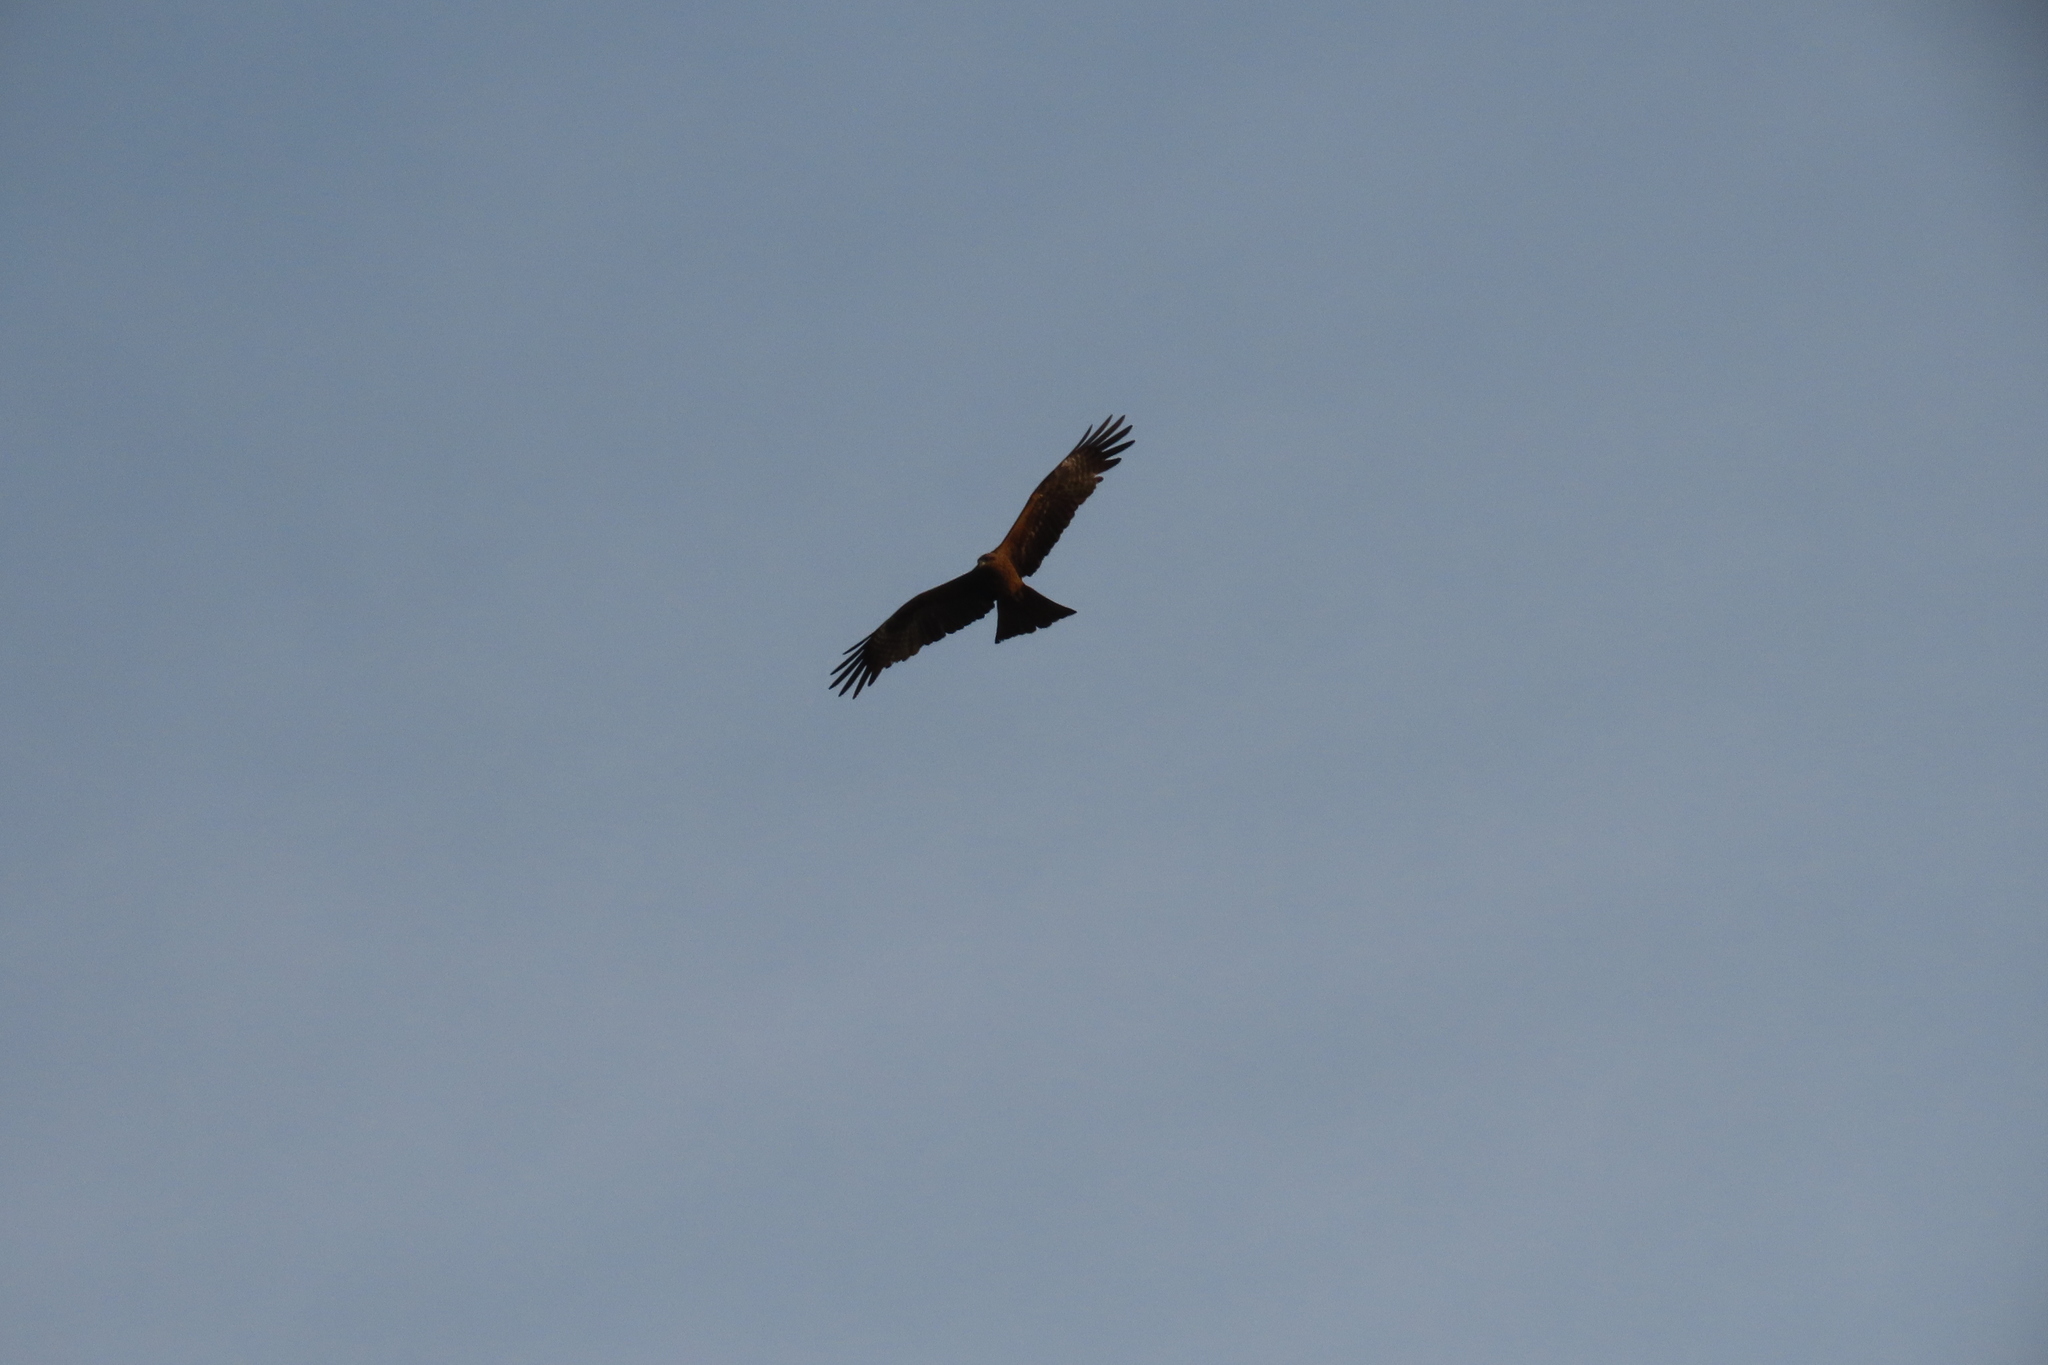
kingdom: Animalia
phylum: Chordata
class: Aves
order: Accipitriformes
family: Accipitridae
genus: Milvus
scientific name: Milvus migrans
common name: Black kite
